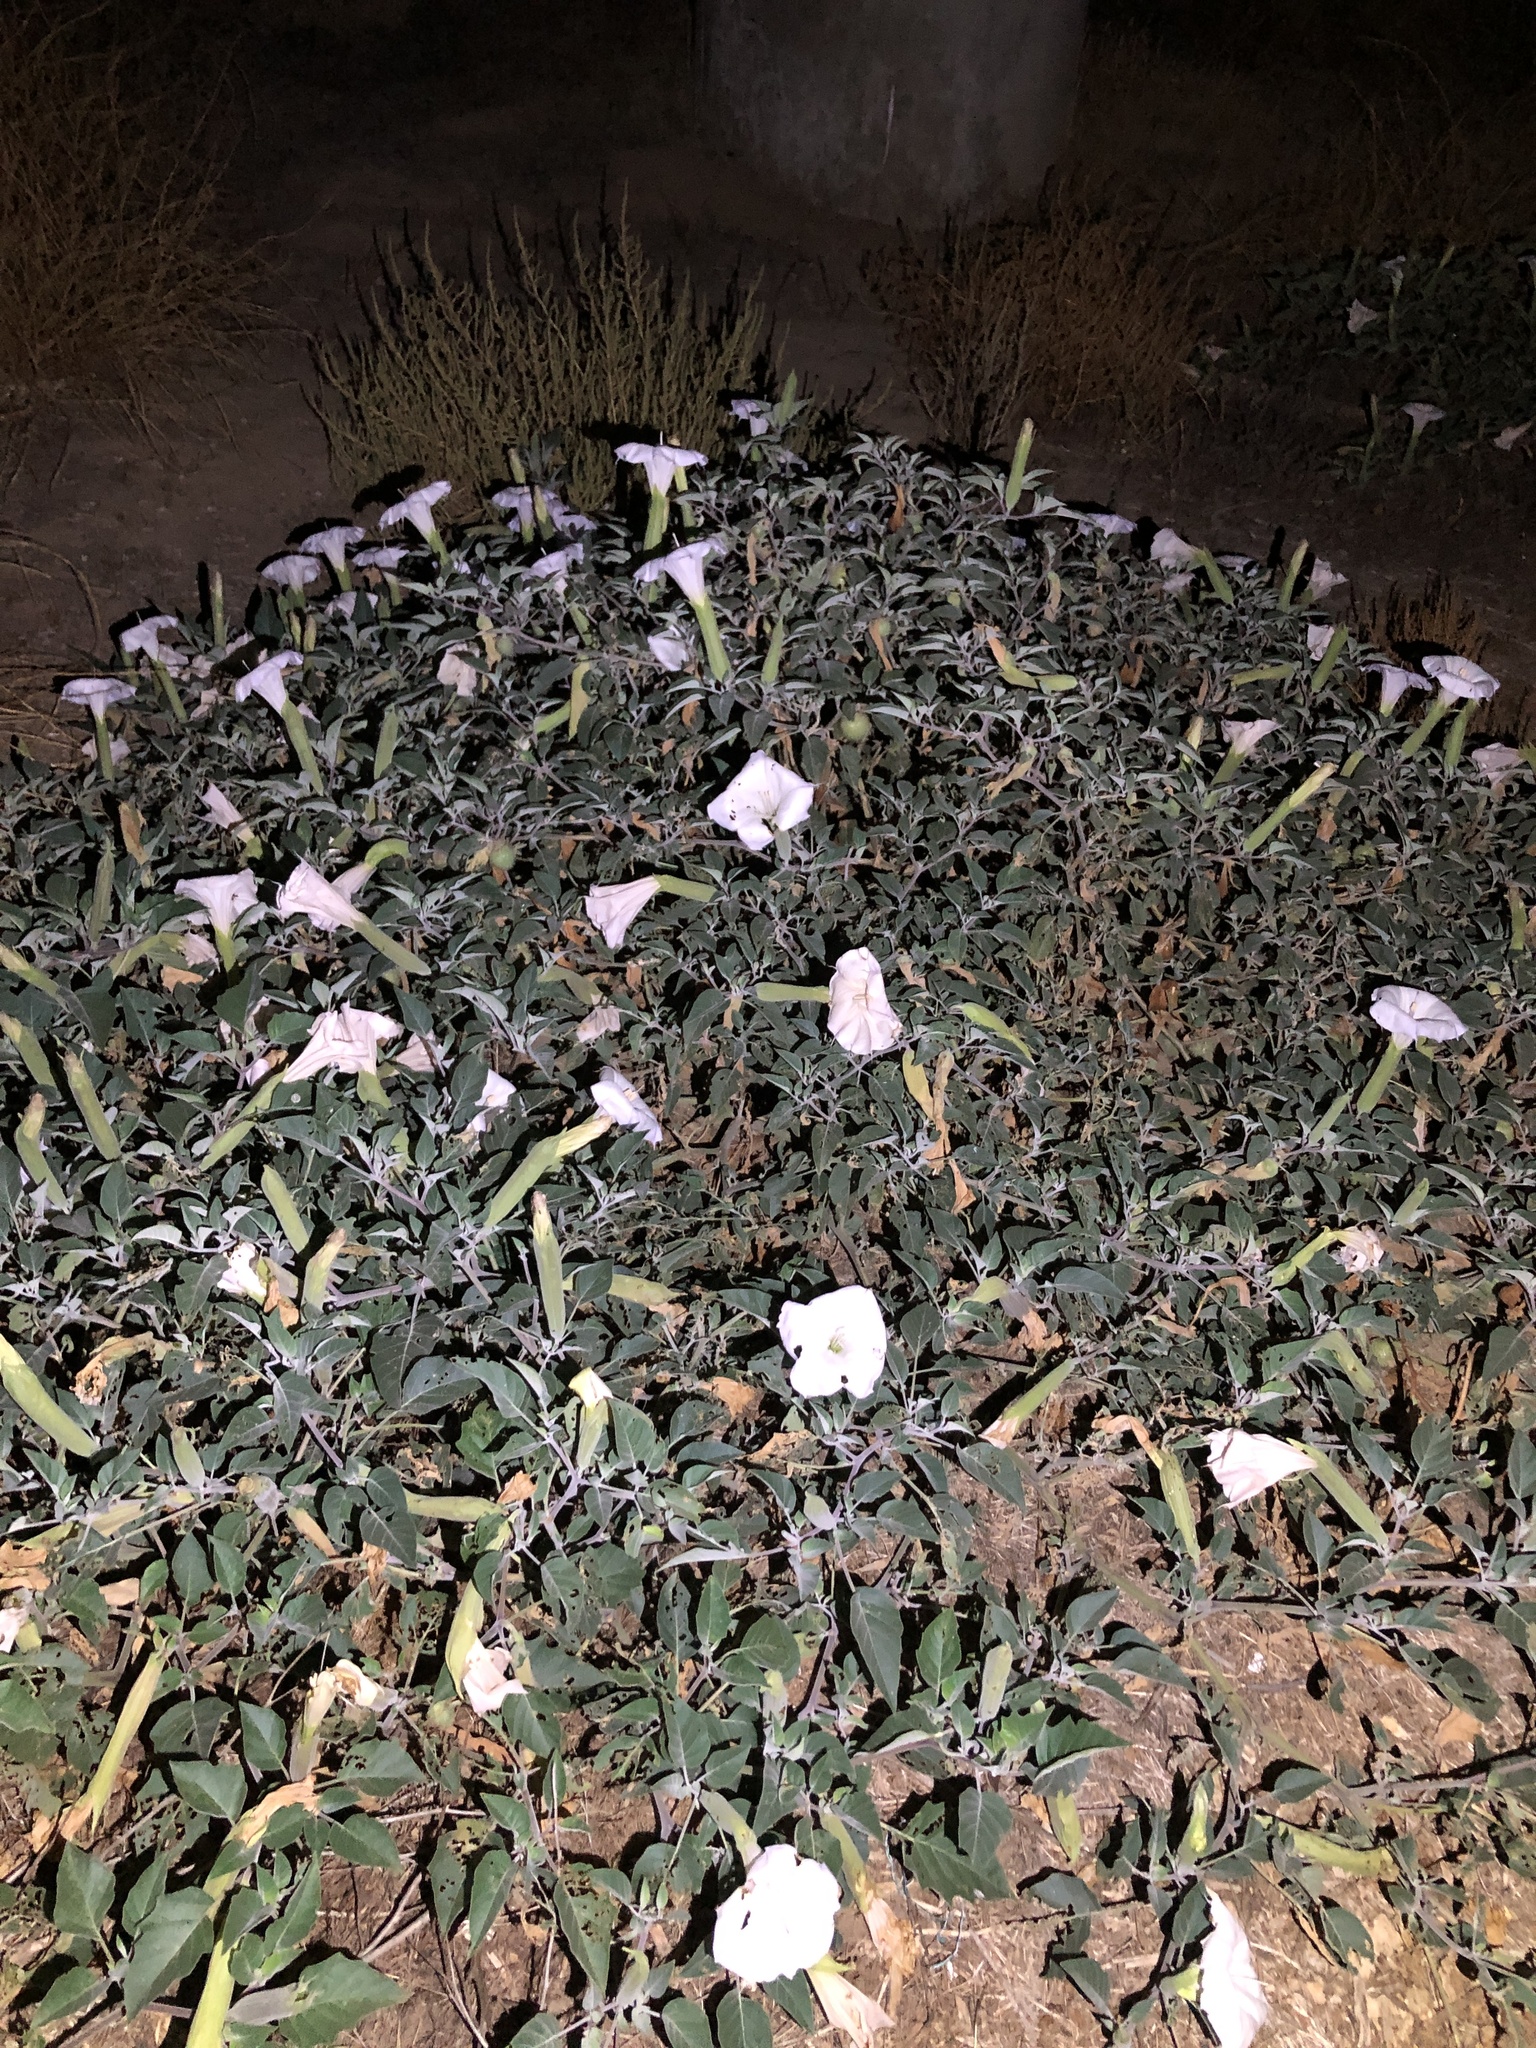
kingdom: Plantae
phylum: Tracheophyta
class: Magnoliopsida
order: Solanales
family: Solanaceae
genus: Datura
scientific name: Datura wrightii
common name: Sacred thorn-apple
